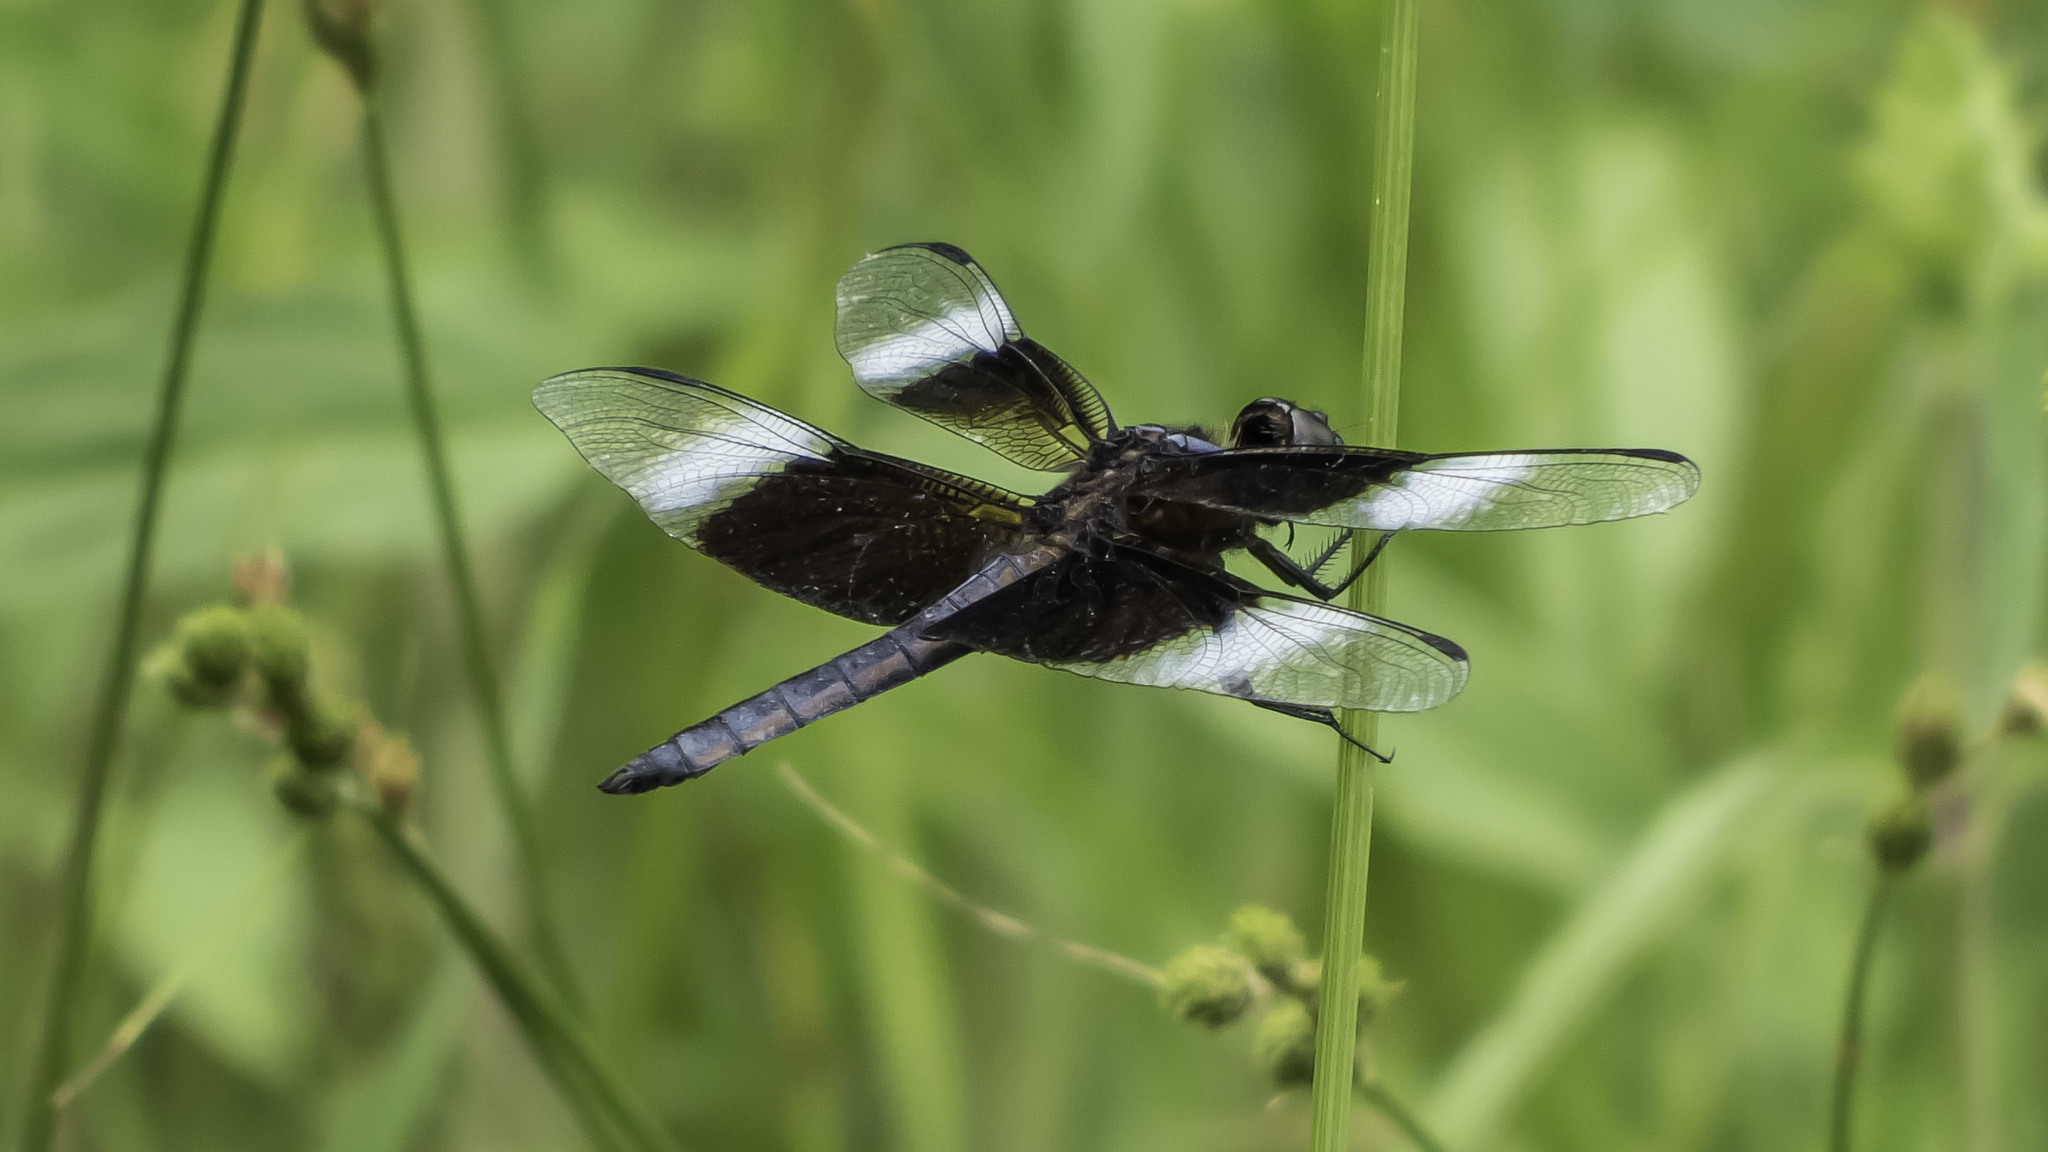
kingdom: Animalia
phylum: Arthropoda
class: Insecta
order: Odonata
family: Libellulidae
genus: Libellula
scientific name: Libellula luctuosa
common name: Widow skimmer
